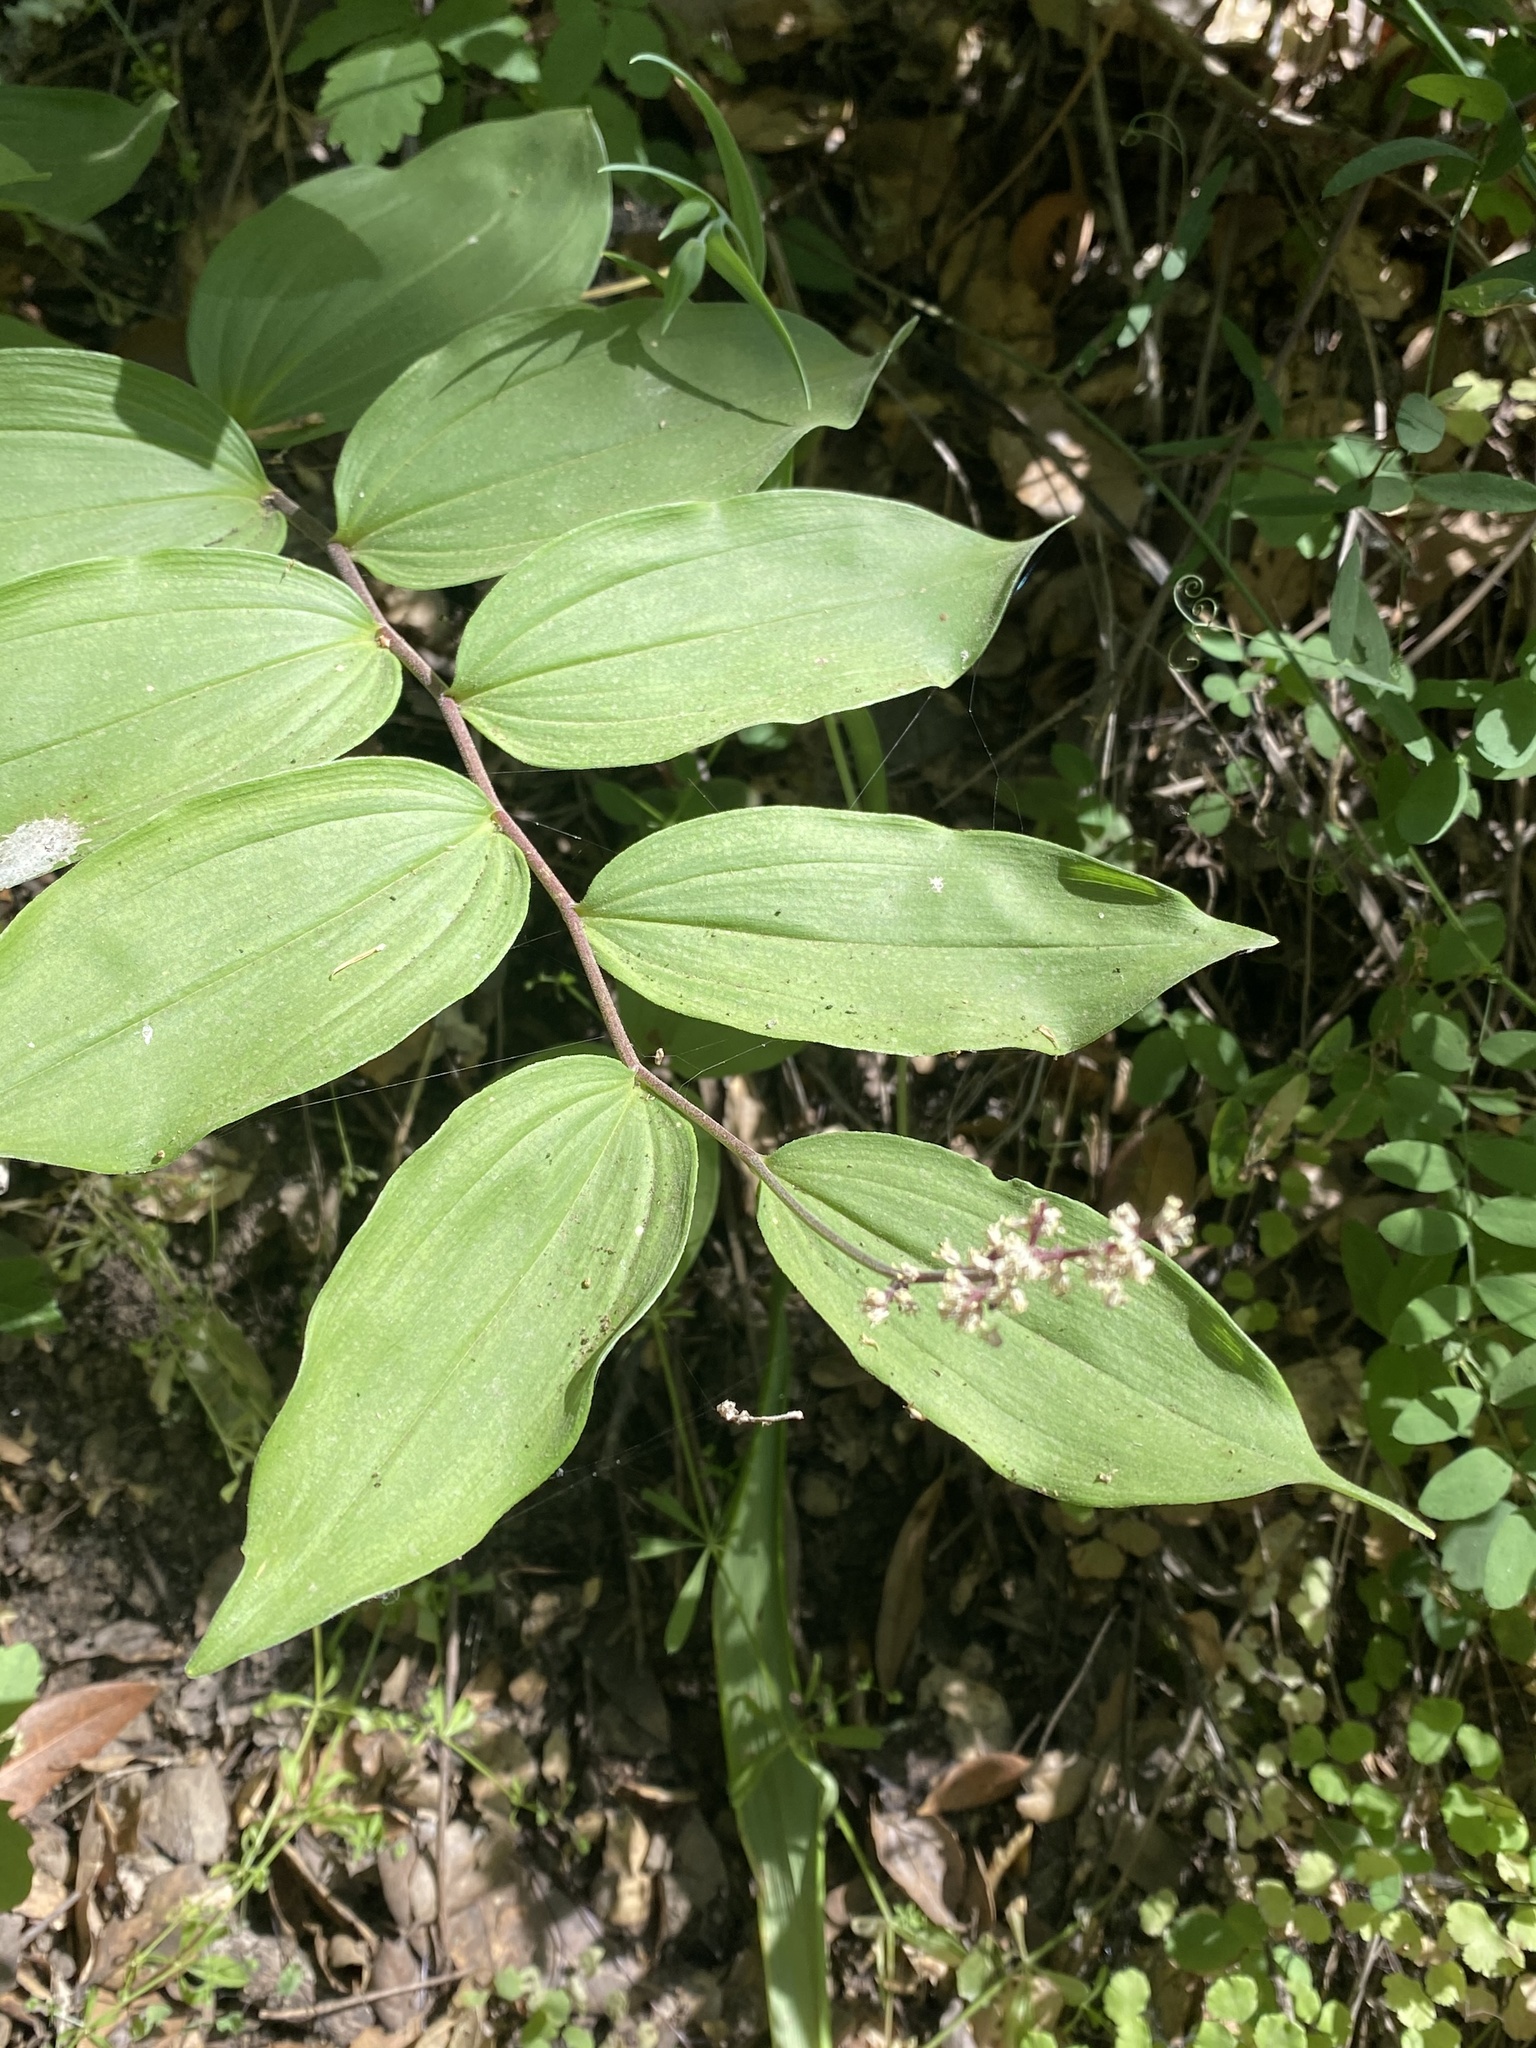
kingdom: Plantae
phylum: Tracheophyta
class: Liliopsida
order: Asparagales
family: Asparagaceae
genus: Maianthemum
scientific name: Maianthemum racemosum
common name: False spikenard
